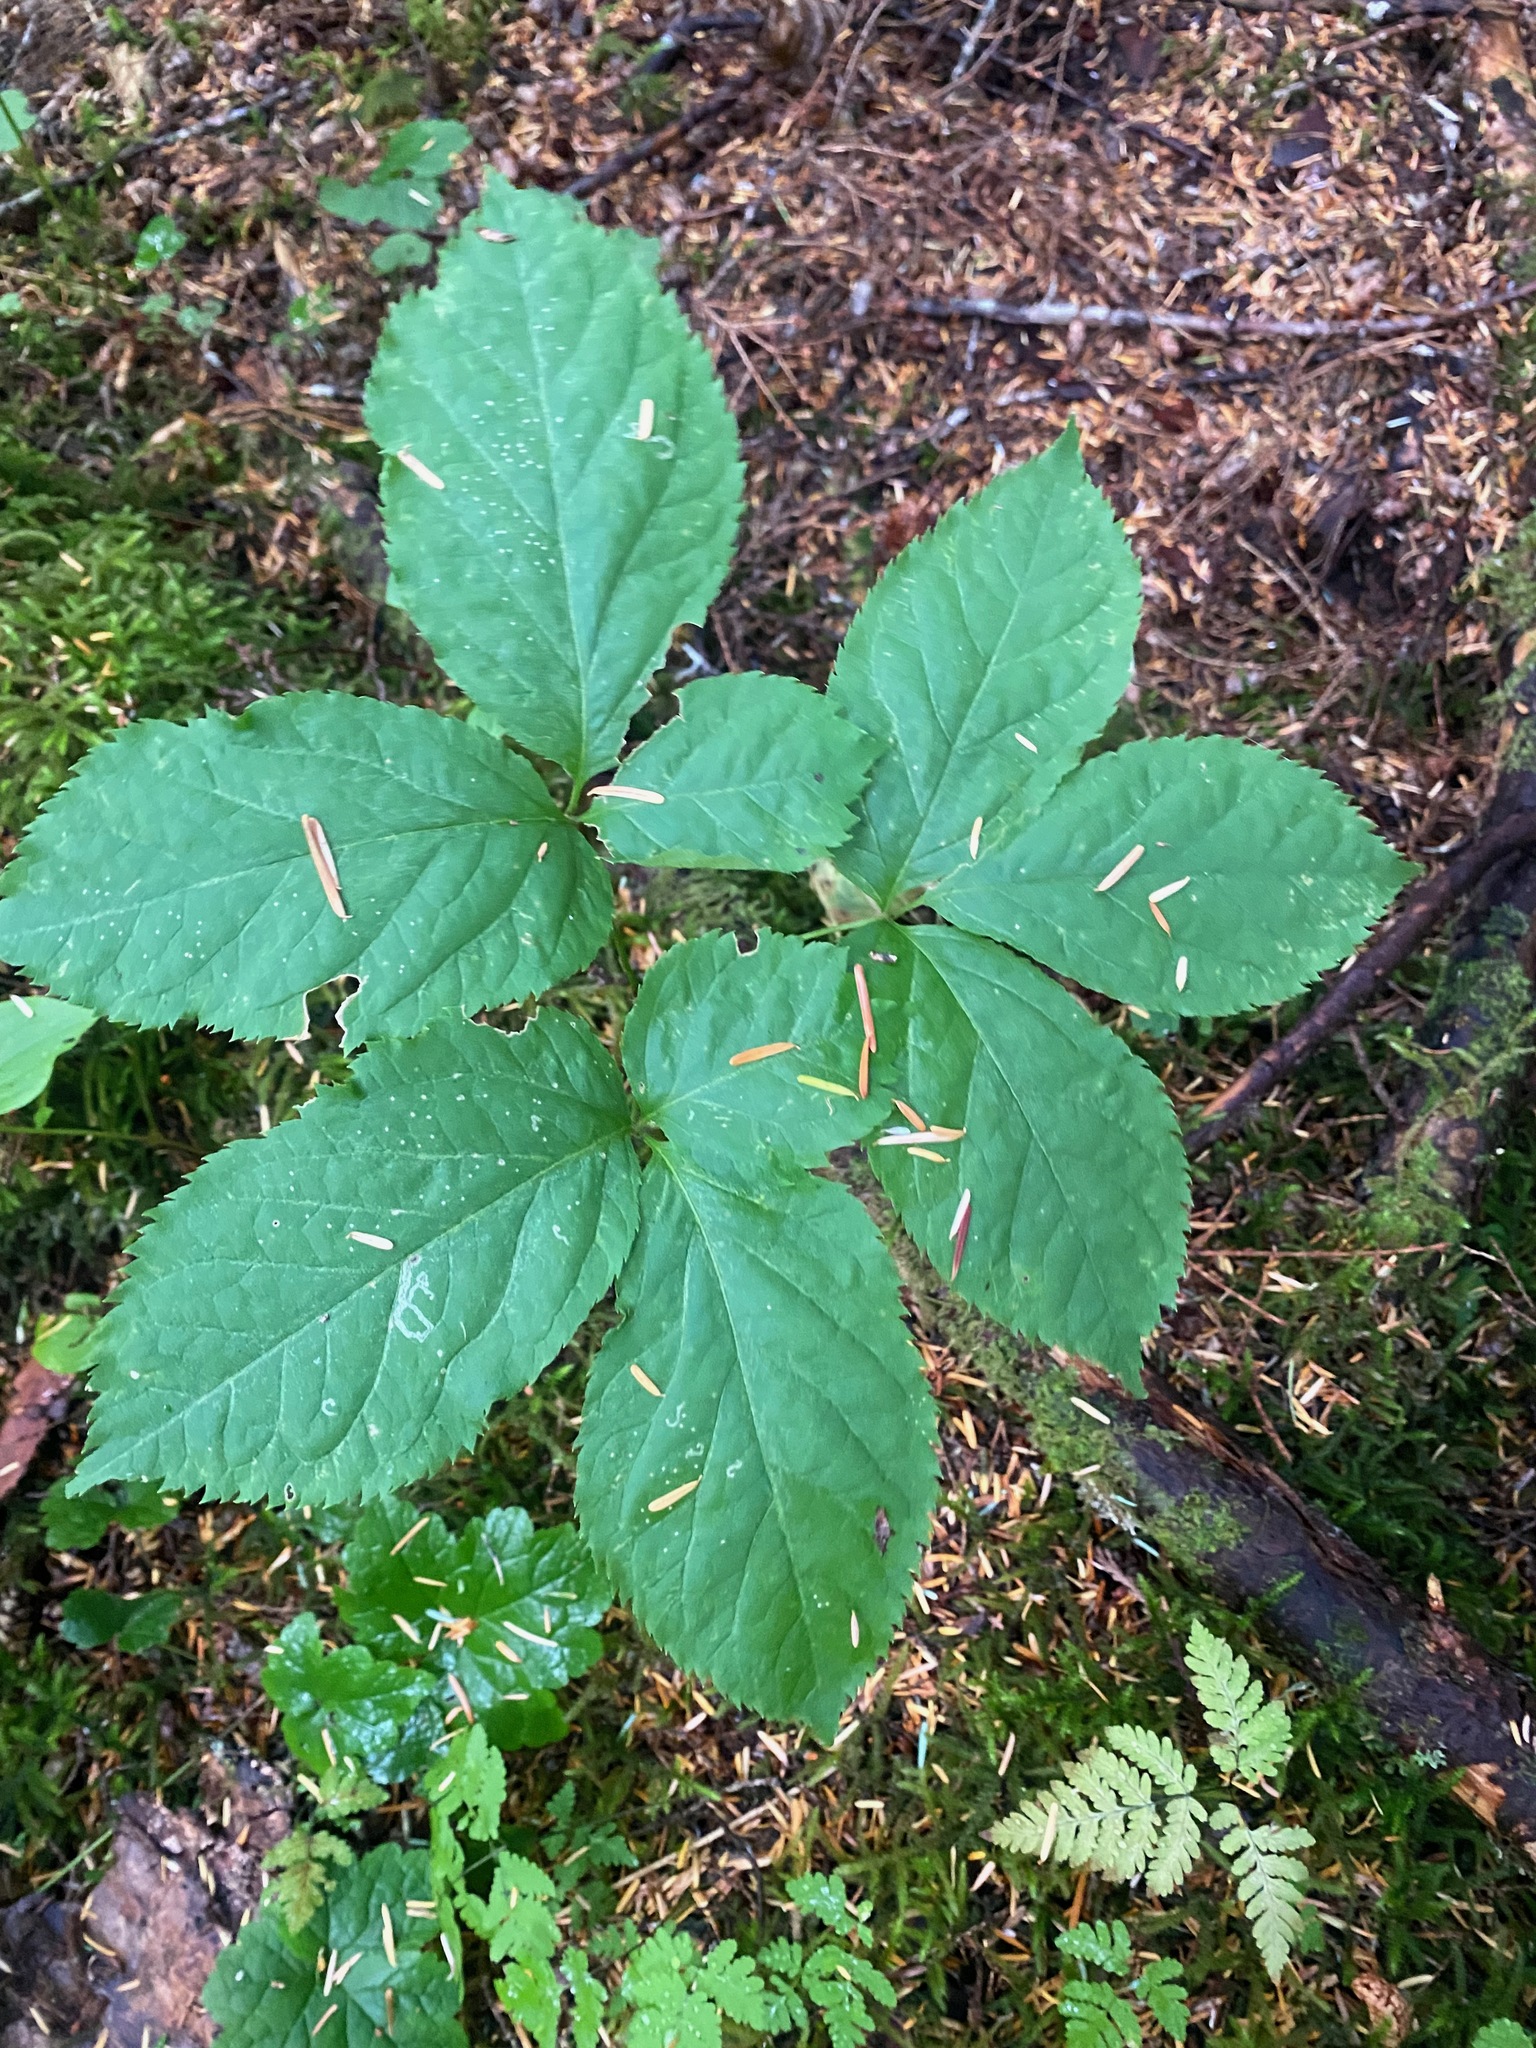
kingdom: Plantae
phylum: Tracheophyta
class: Magnoliopsida
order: Apiales
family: Araliaceae
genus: Aralia
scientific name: Aralia nudicaulis
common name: Wild sarsaparilla
